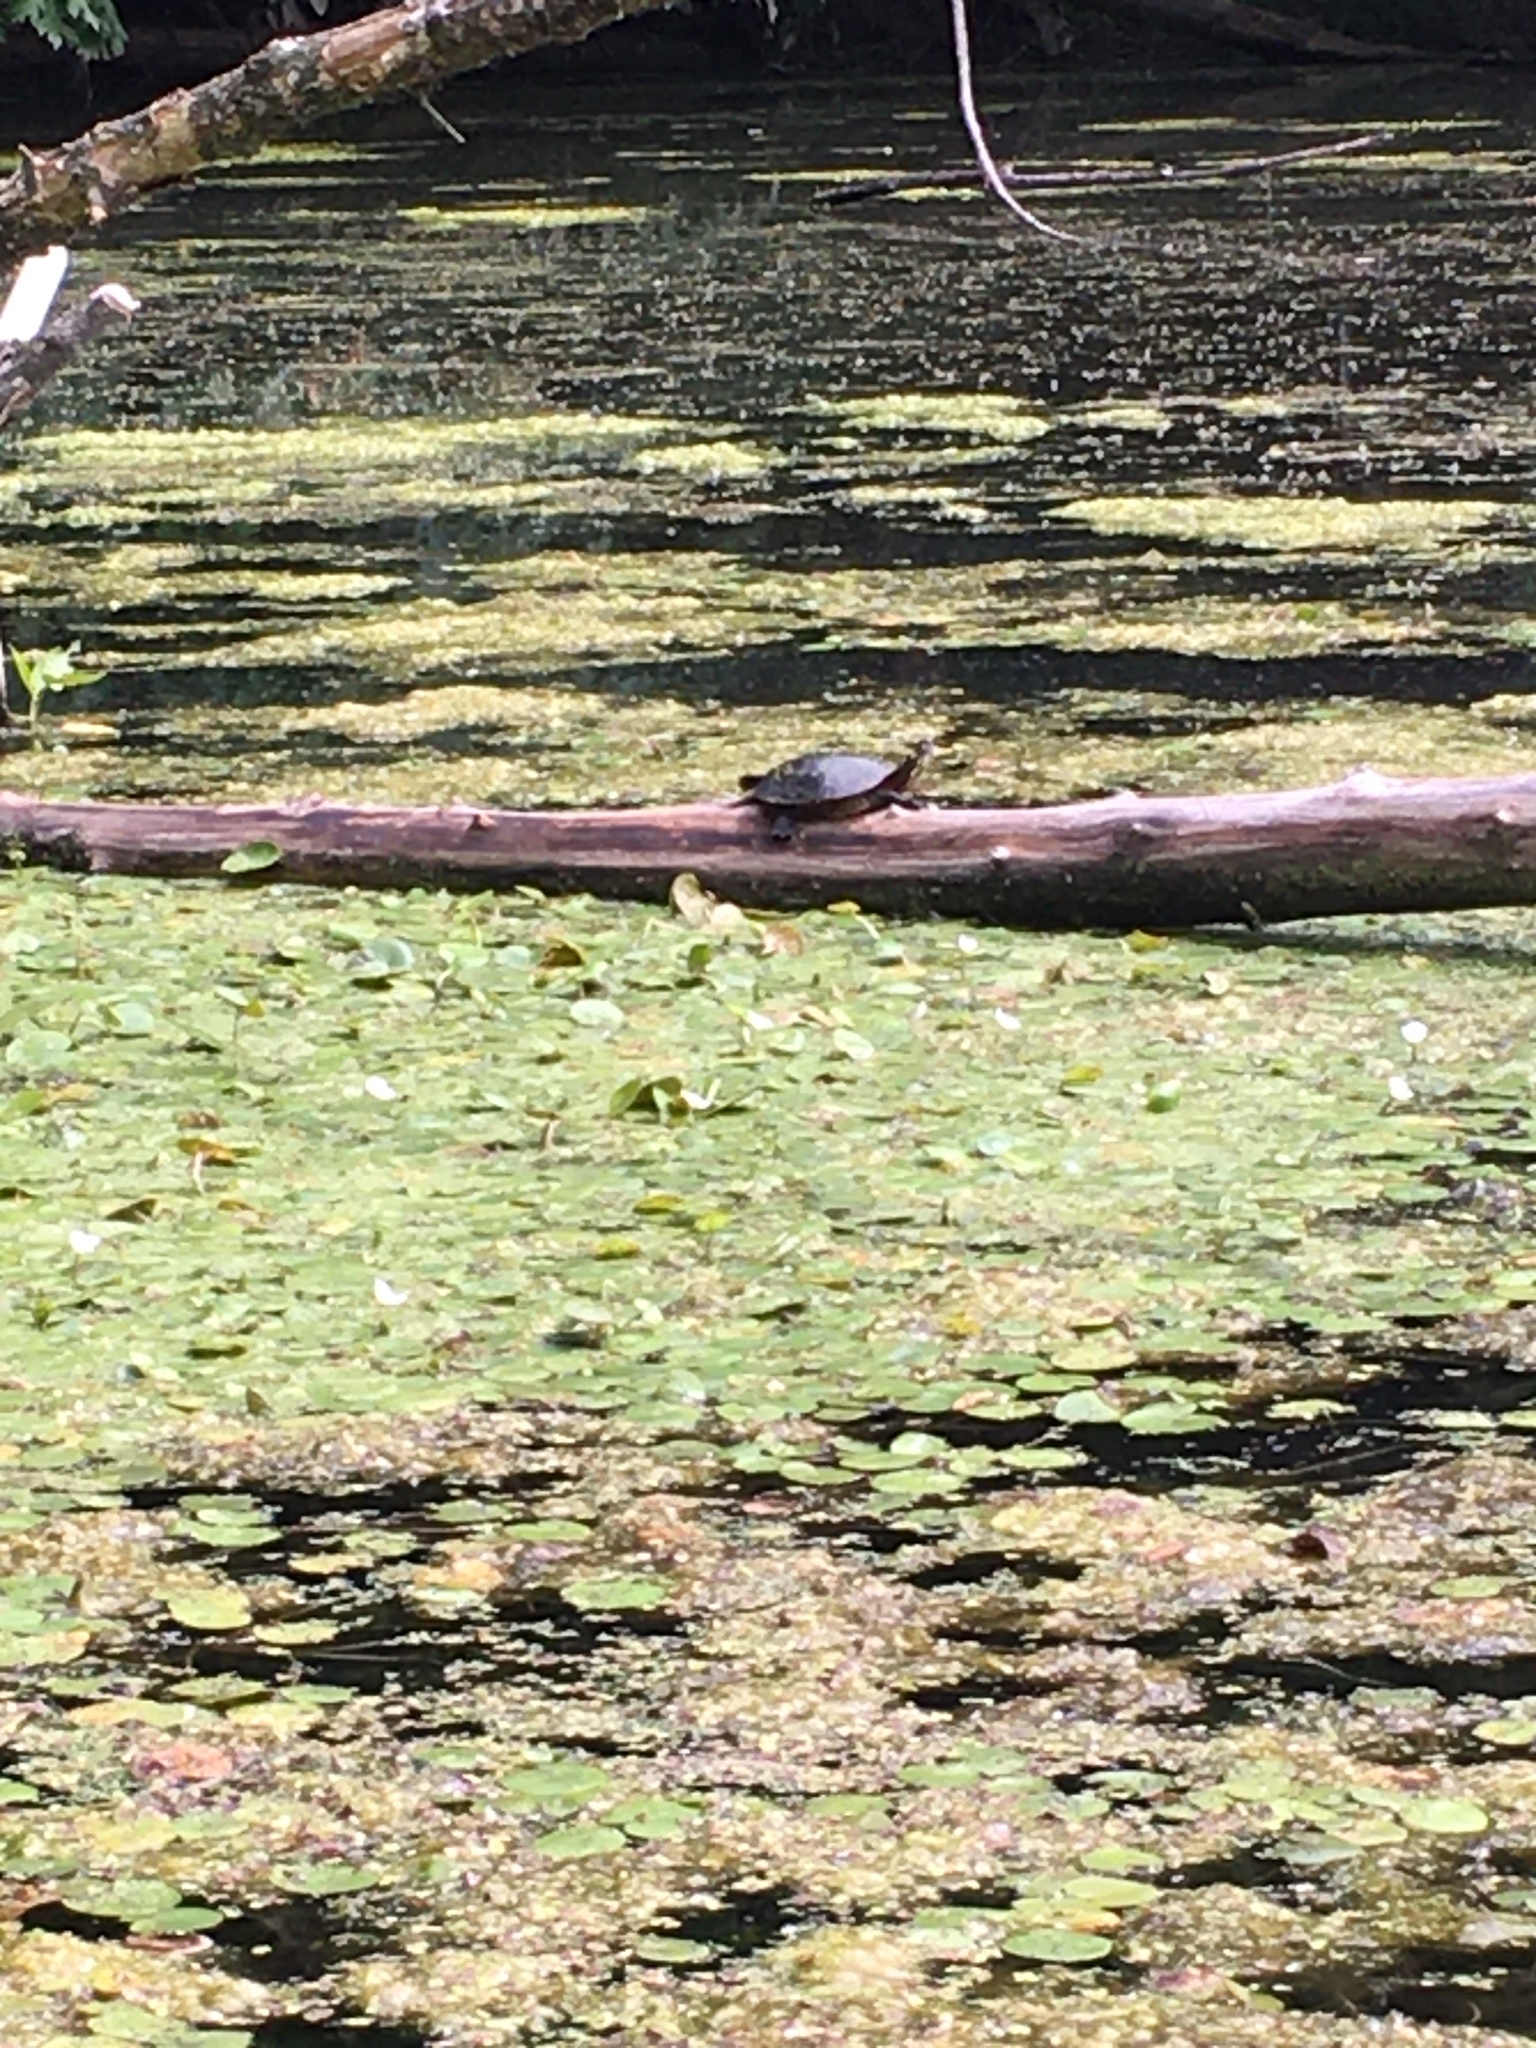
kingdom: Animalia
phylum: Chordata
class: Testudines
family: Emydidae
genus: Chrysemys
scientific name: Chrysemys picta
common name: Painted turtle
